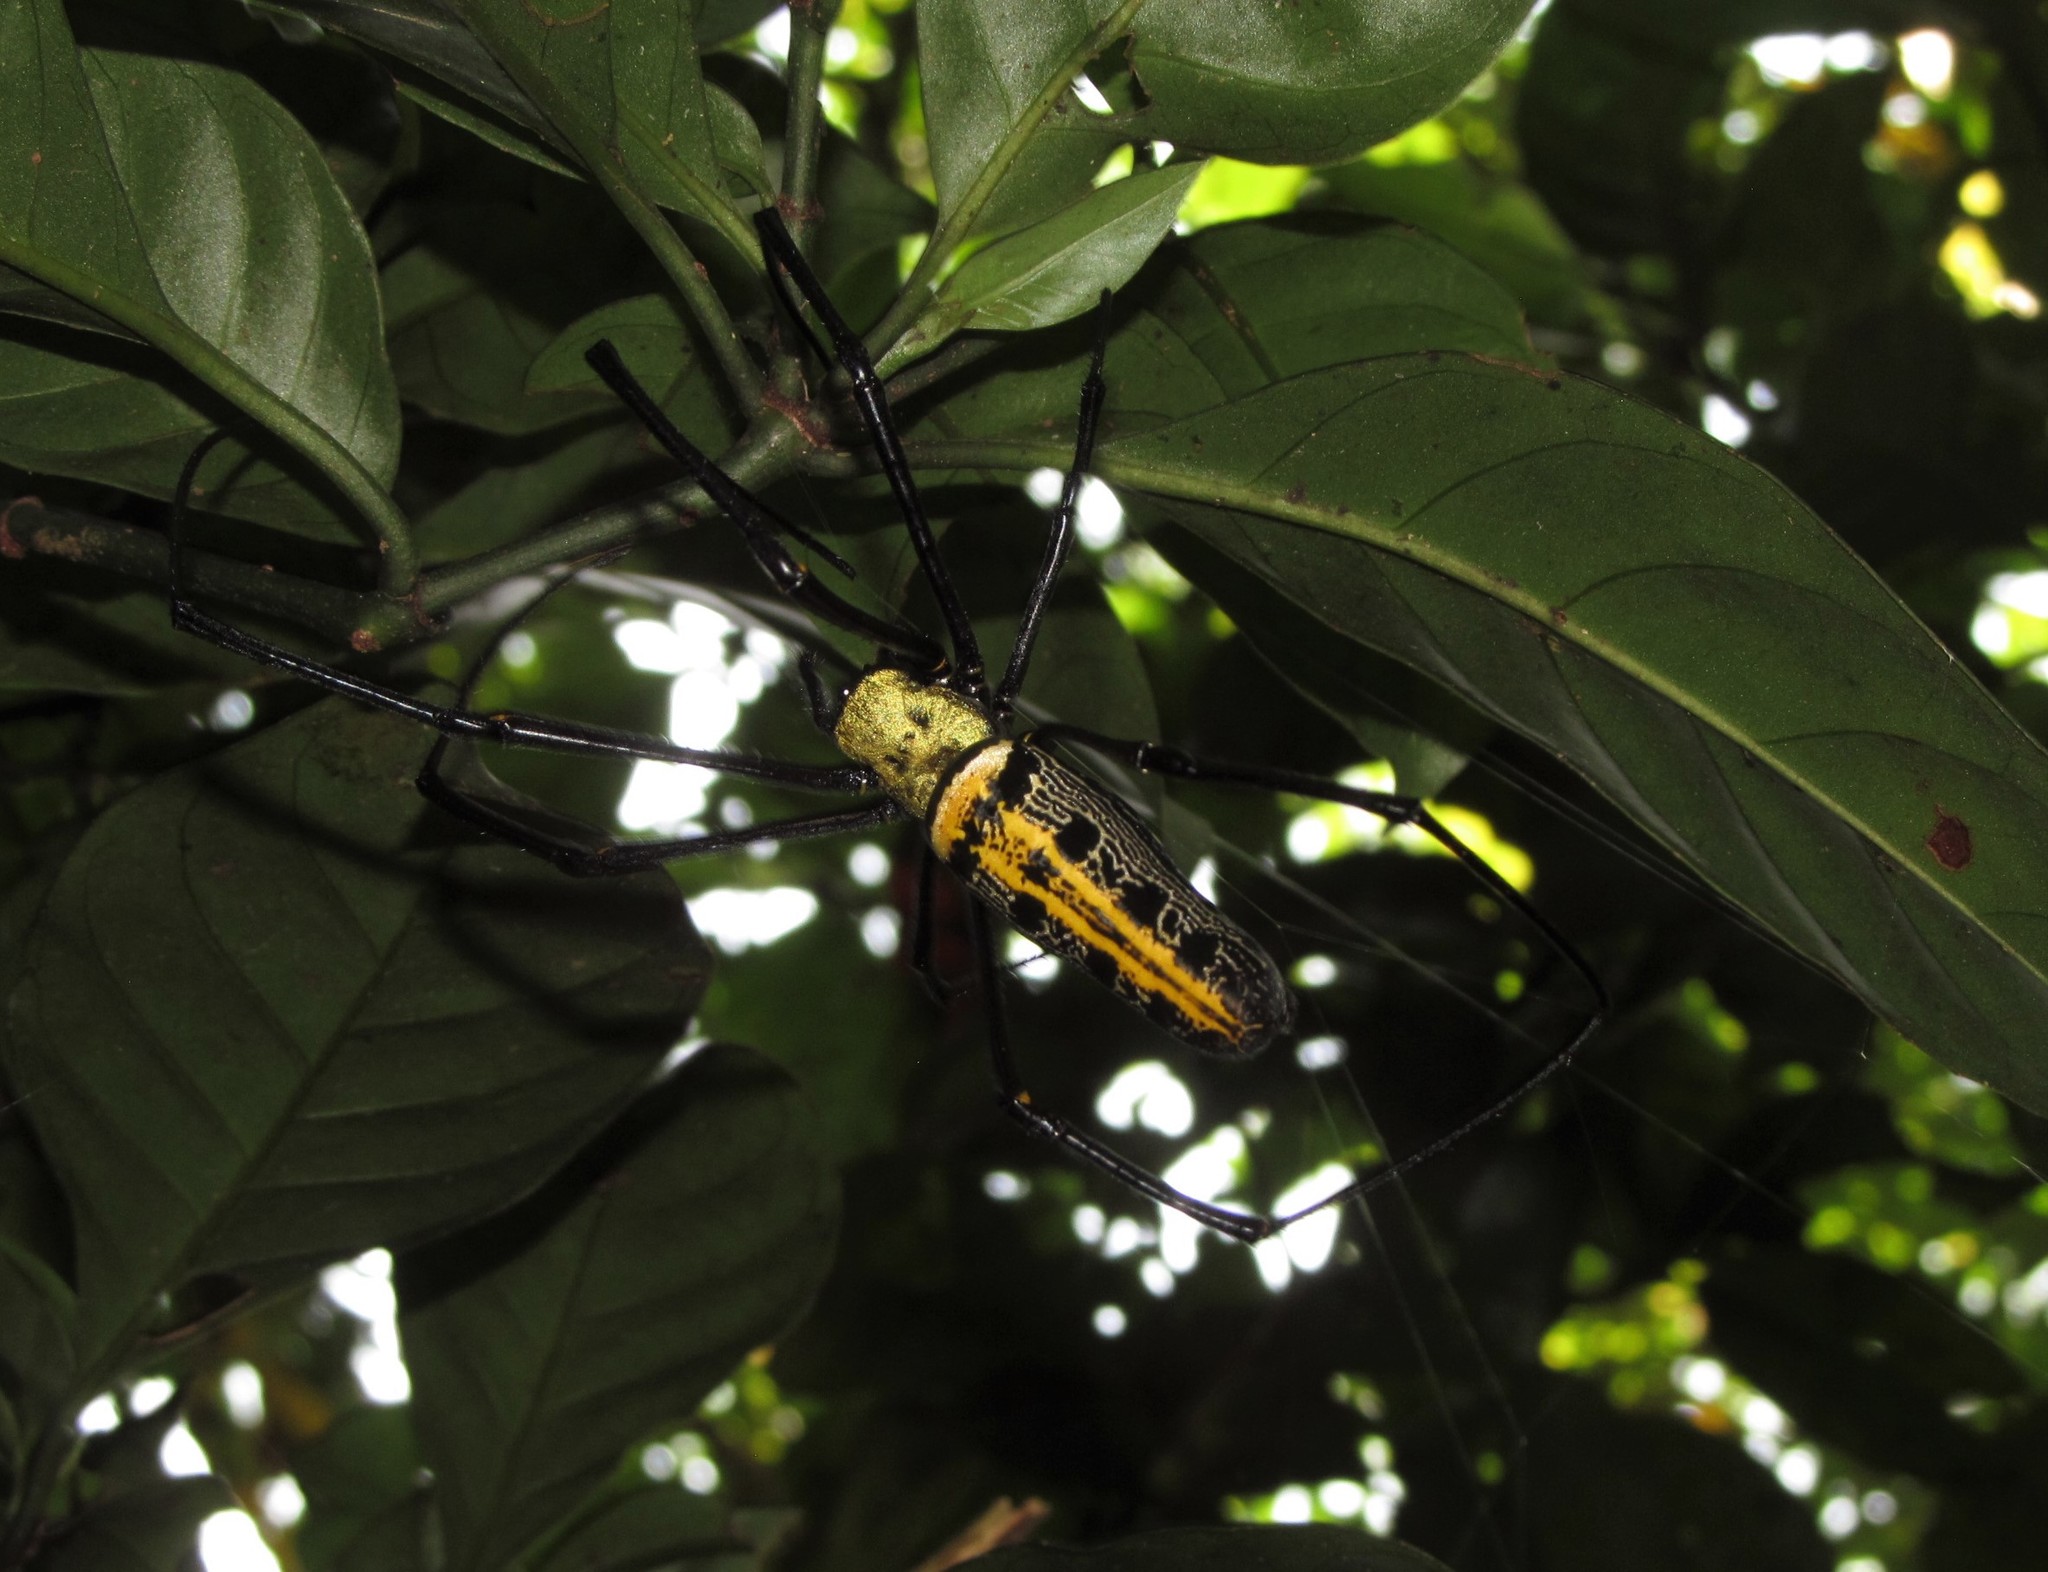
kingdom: Animalia
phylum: Arthropoda
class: Arachnida
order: Araneae
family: Araneidae
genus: Nephila
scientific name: Nephila pilipes
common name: Giant golden orb weaver
